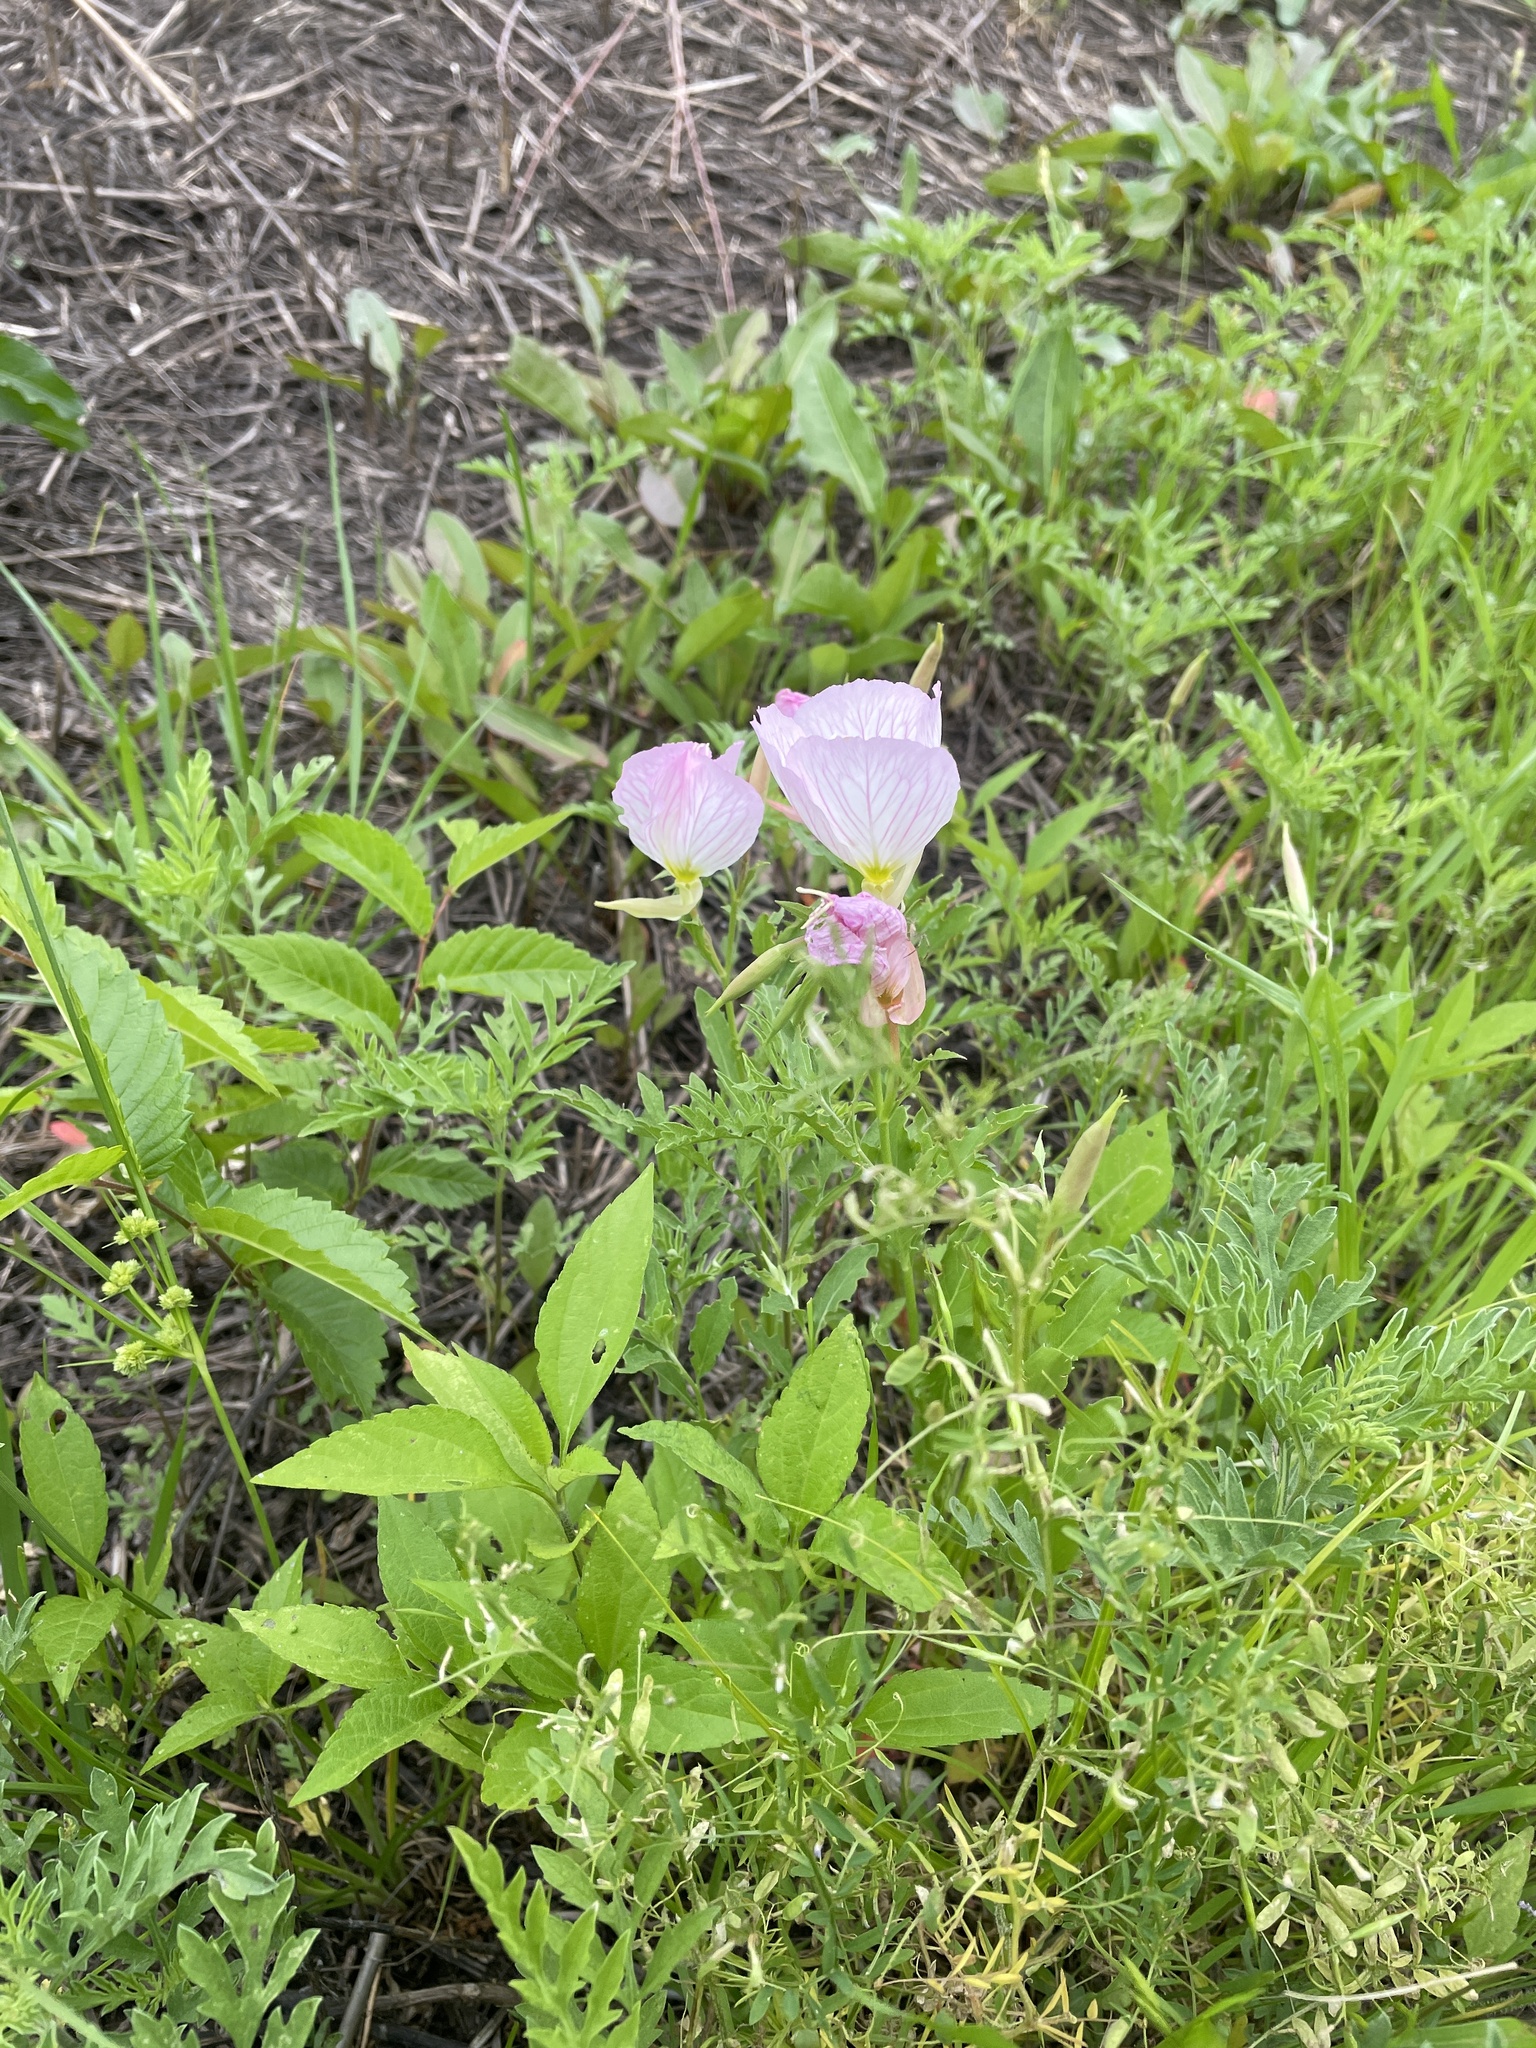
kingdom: Plantae
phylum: Tracheophyta
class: Magnoliopsida
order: Myrtales
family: Onagraceae
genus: Oenothera
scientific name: Oenothera speciosa
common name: White evening-primrose
